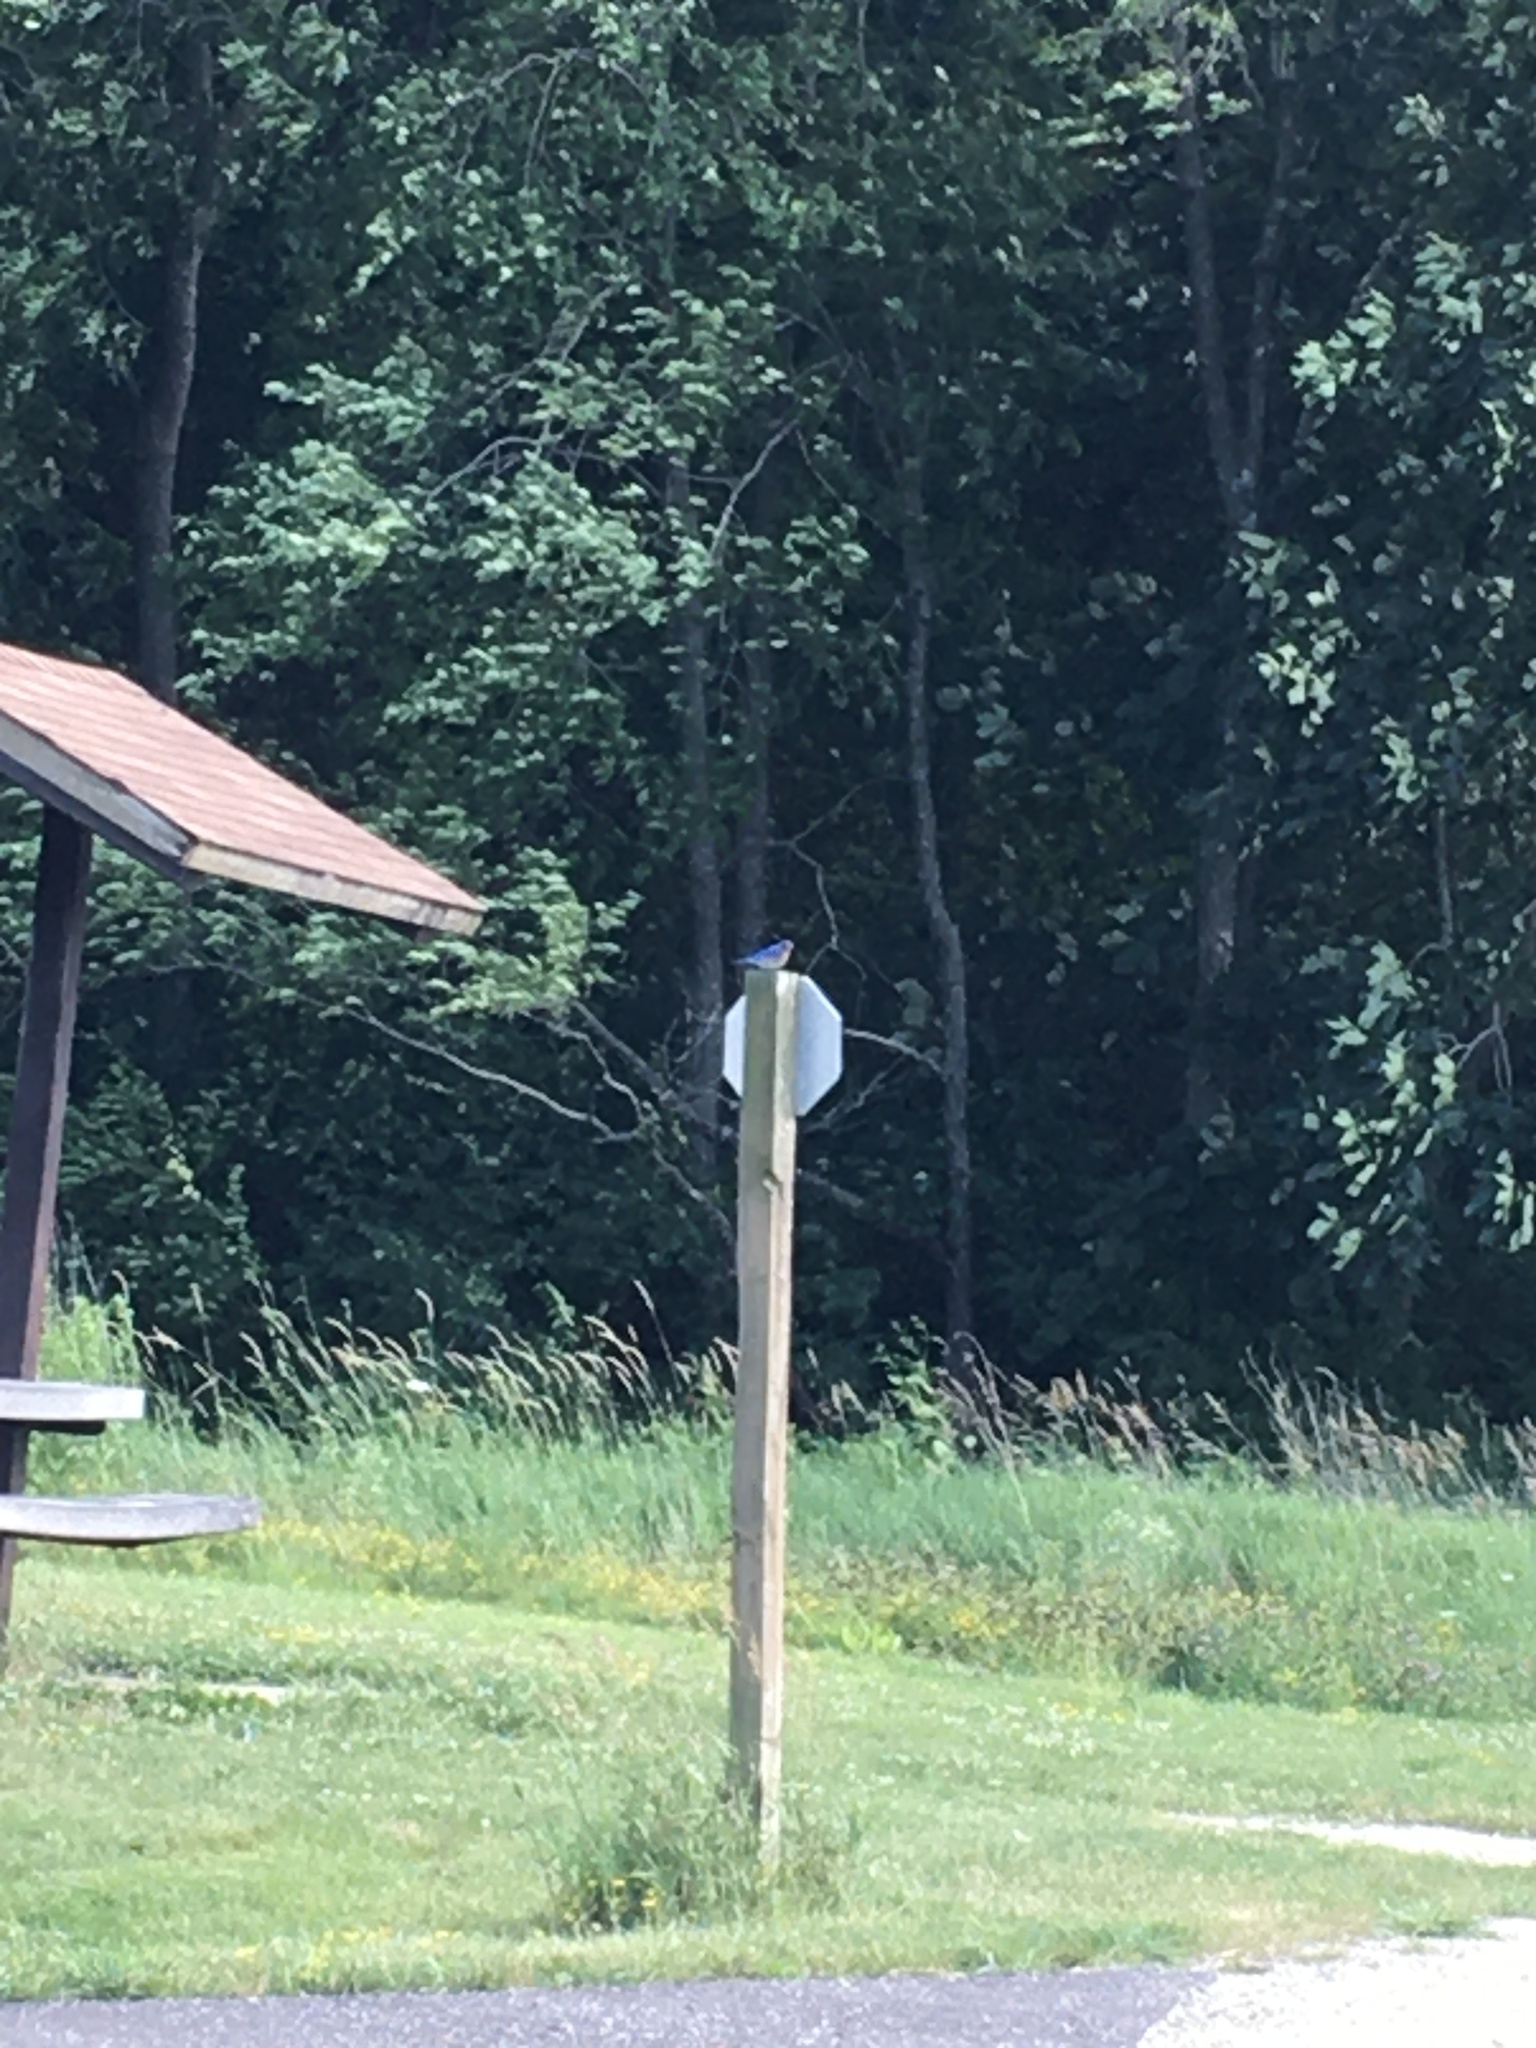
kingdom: Animalia
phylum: Chordata
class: Aves
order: Passeriformes
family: Turdidae
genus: Sialia
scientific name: Sialia sialis
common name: Eastern bluebird
